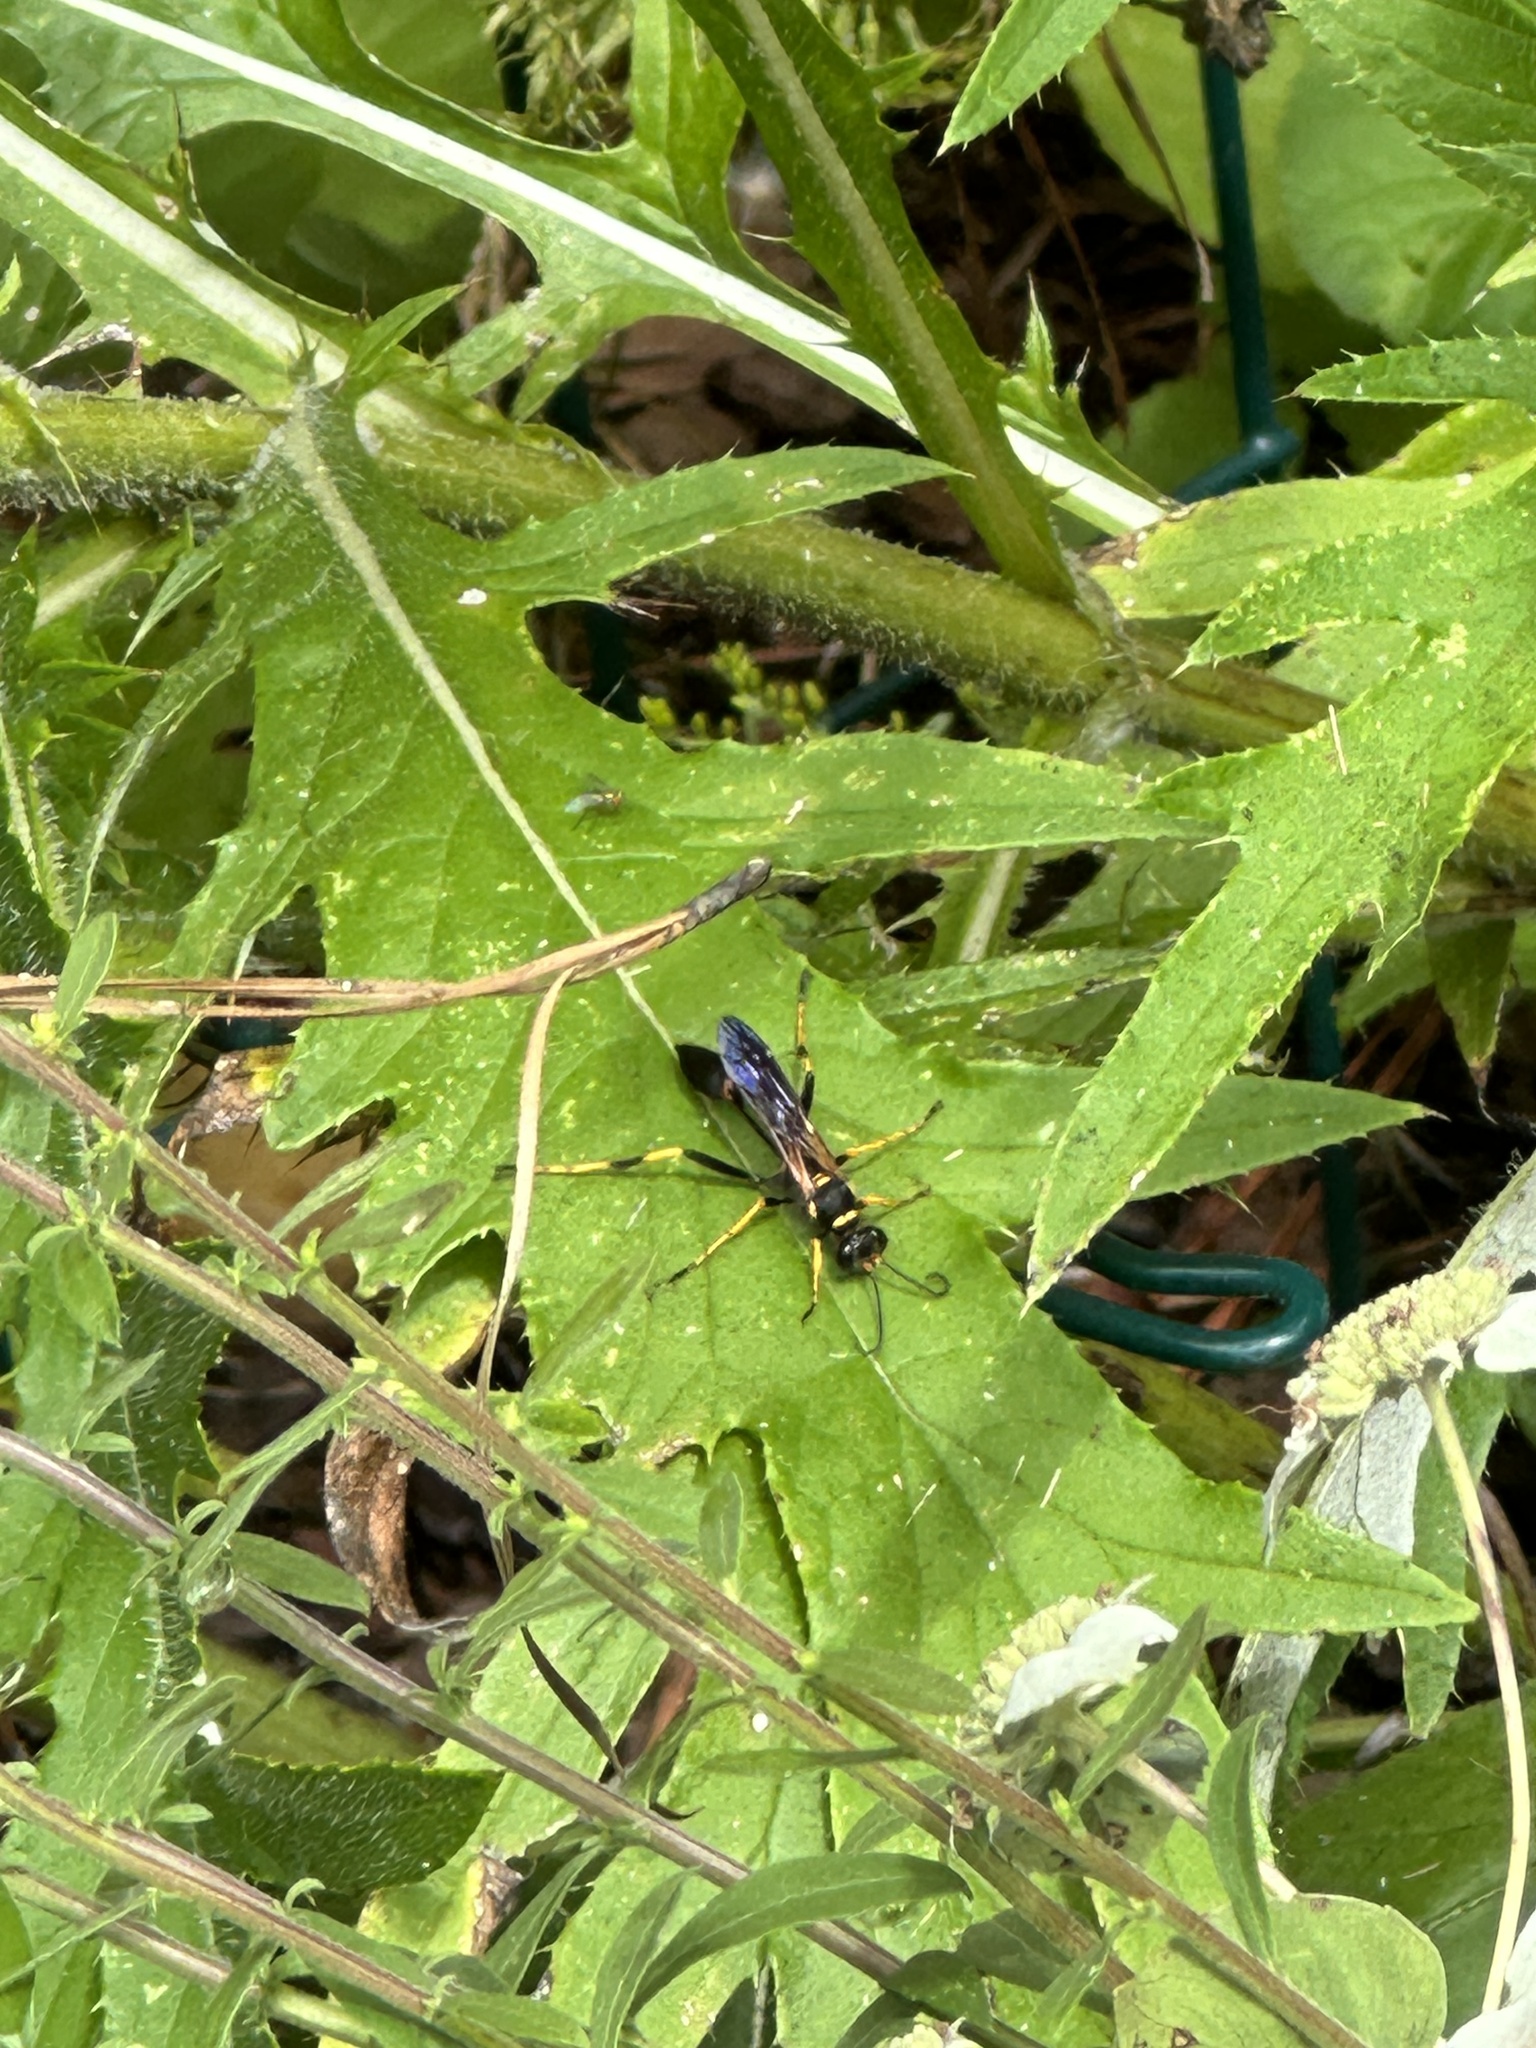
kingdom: Animalia
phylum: Arthropoda
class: Insecta
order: Hymenoptera
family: Sphecidae
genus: Sceliphron
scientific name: Sceliphron caementarium
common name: Mud dauber
